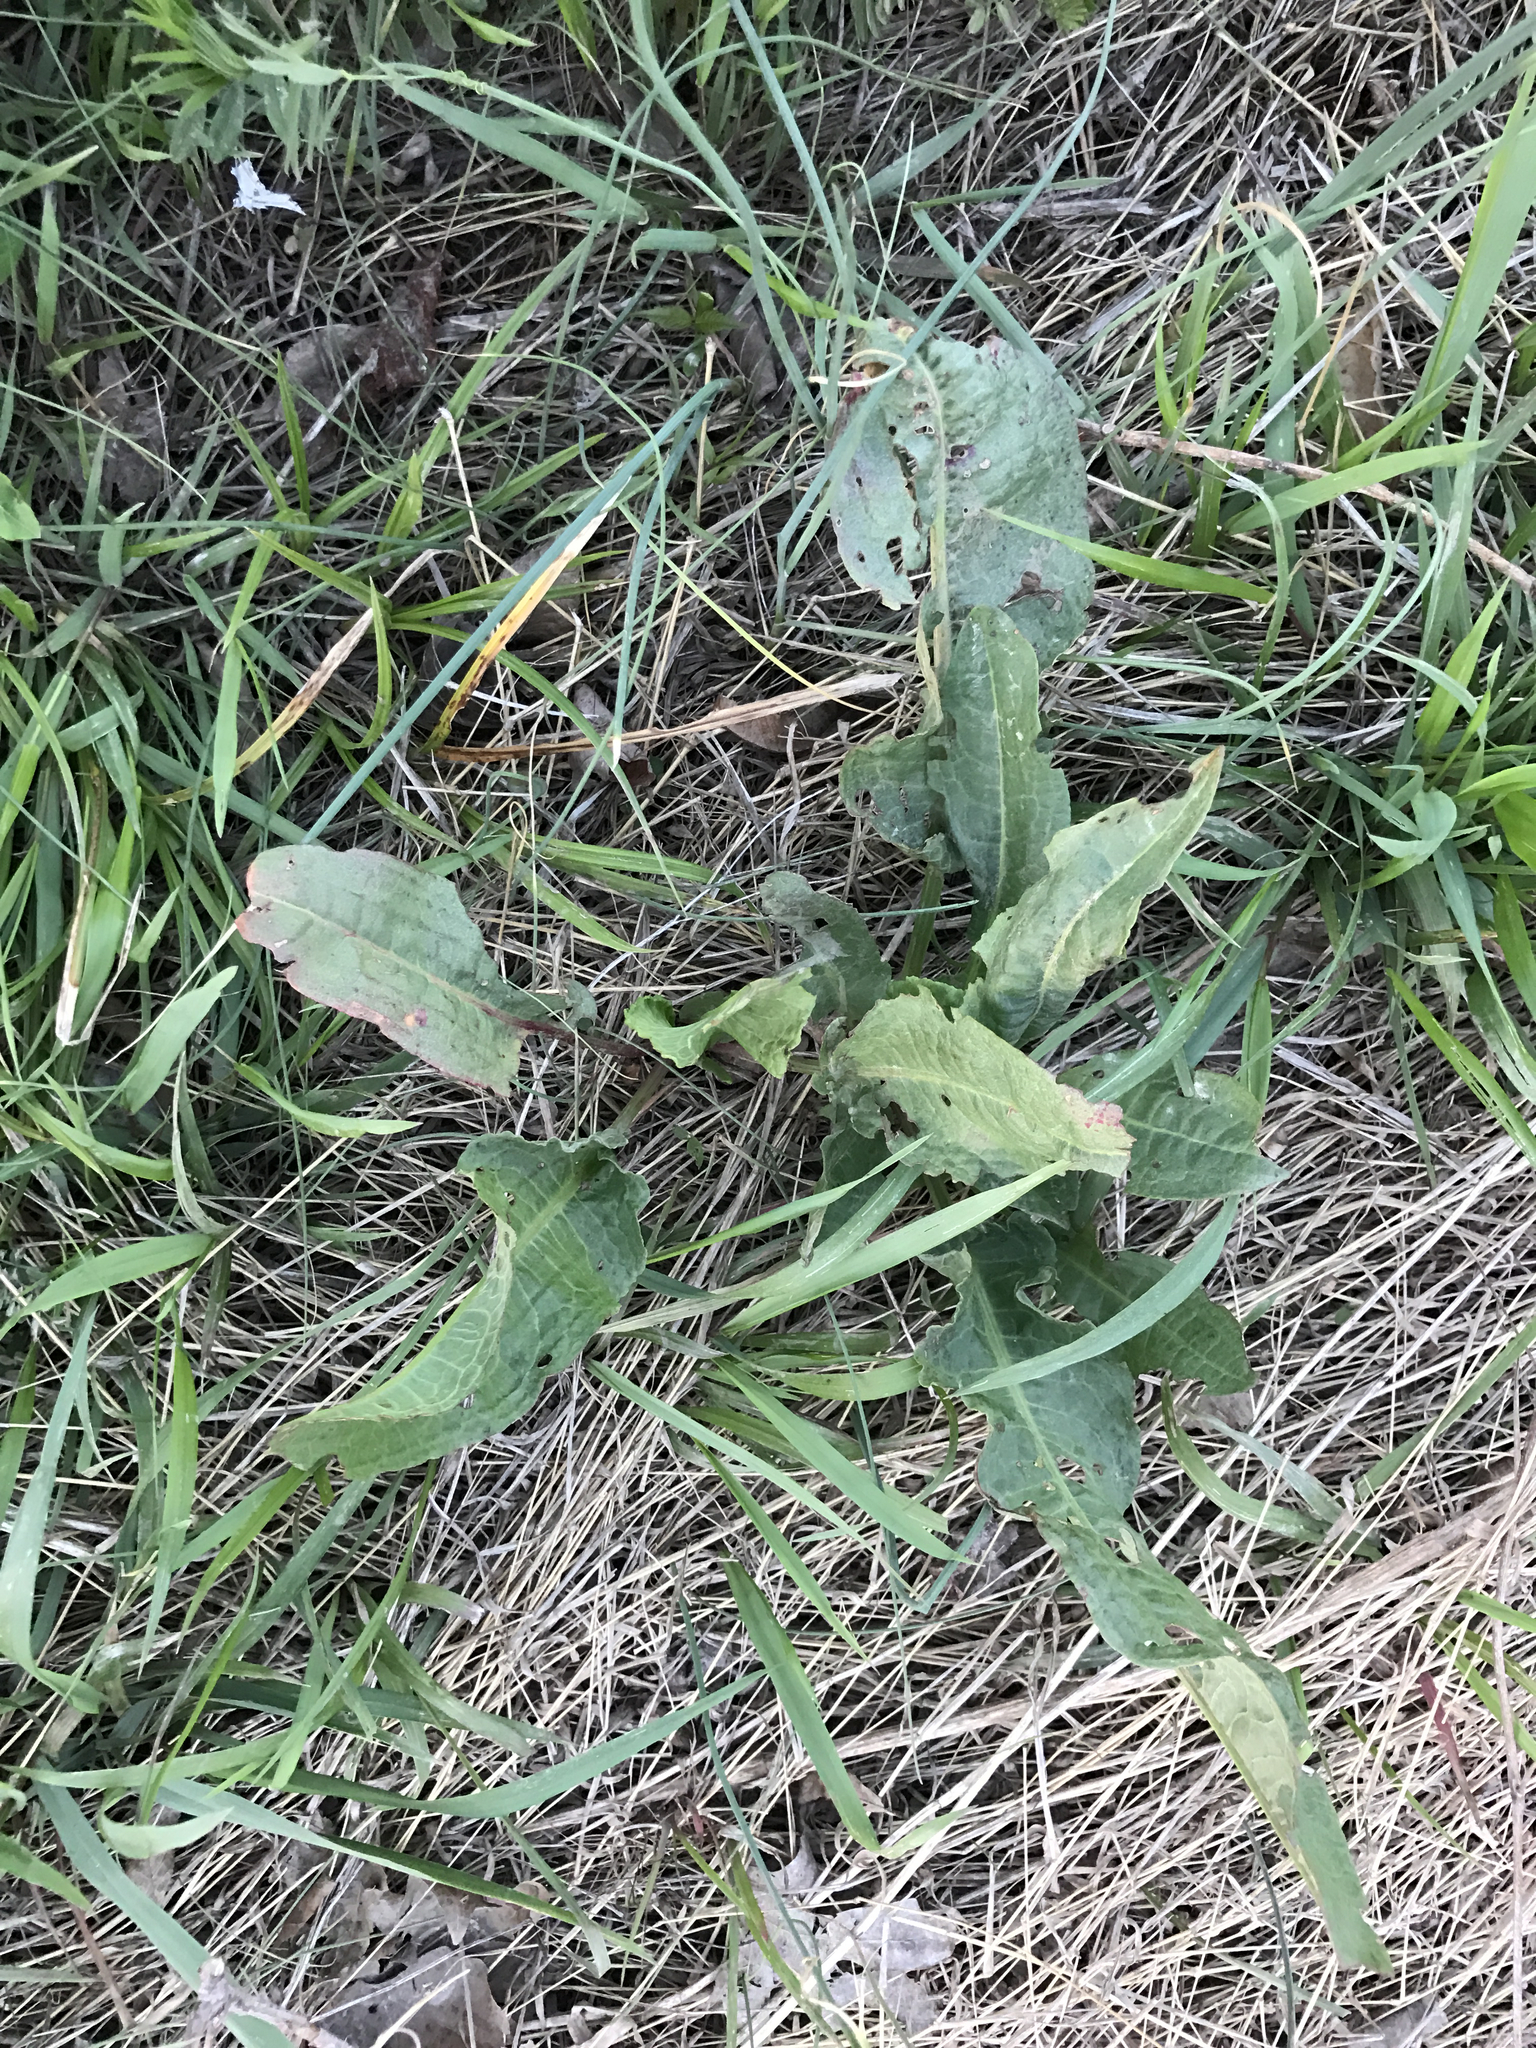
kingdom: Plantae
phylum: Tracheophyta
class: Magnoliopsida
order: Caryophyllales
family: Polygonaceae
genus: Rumex
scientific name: Rumex crispus
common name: Curled dock
